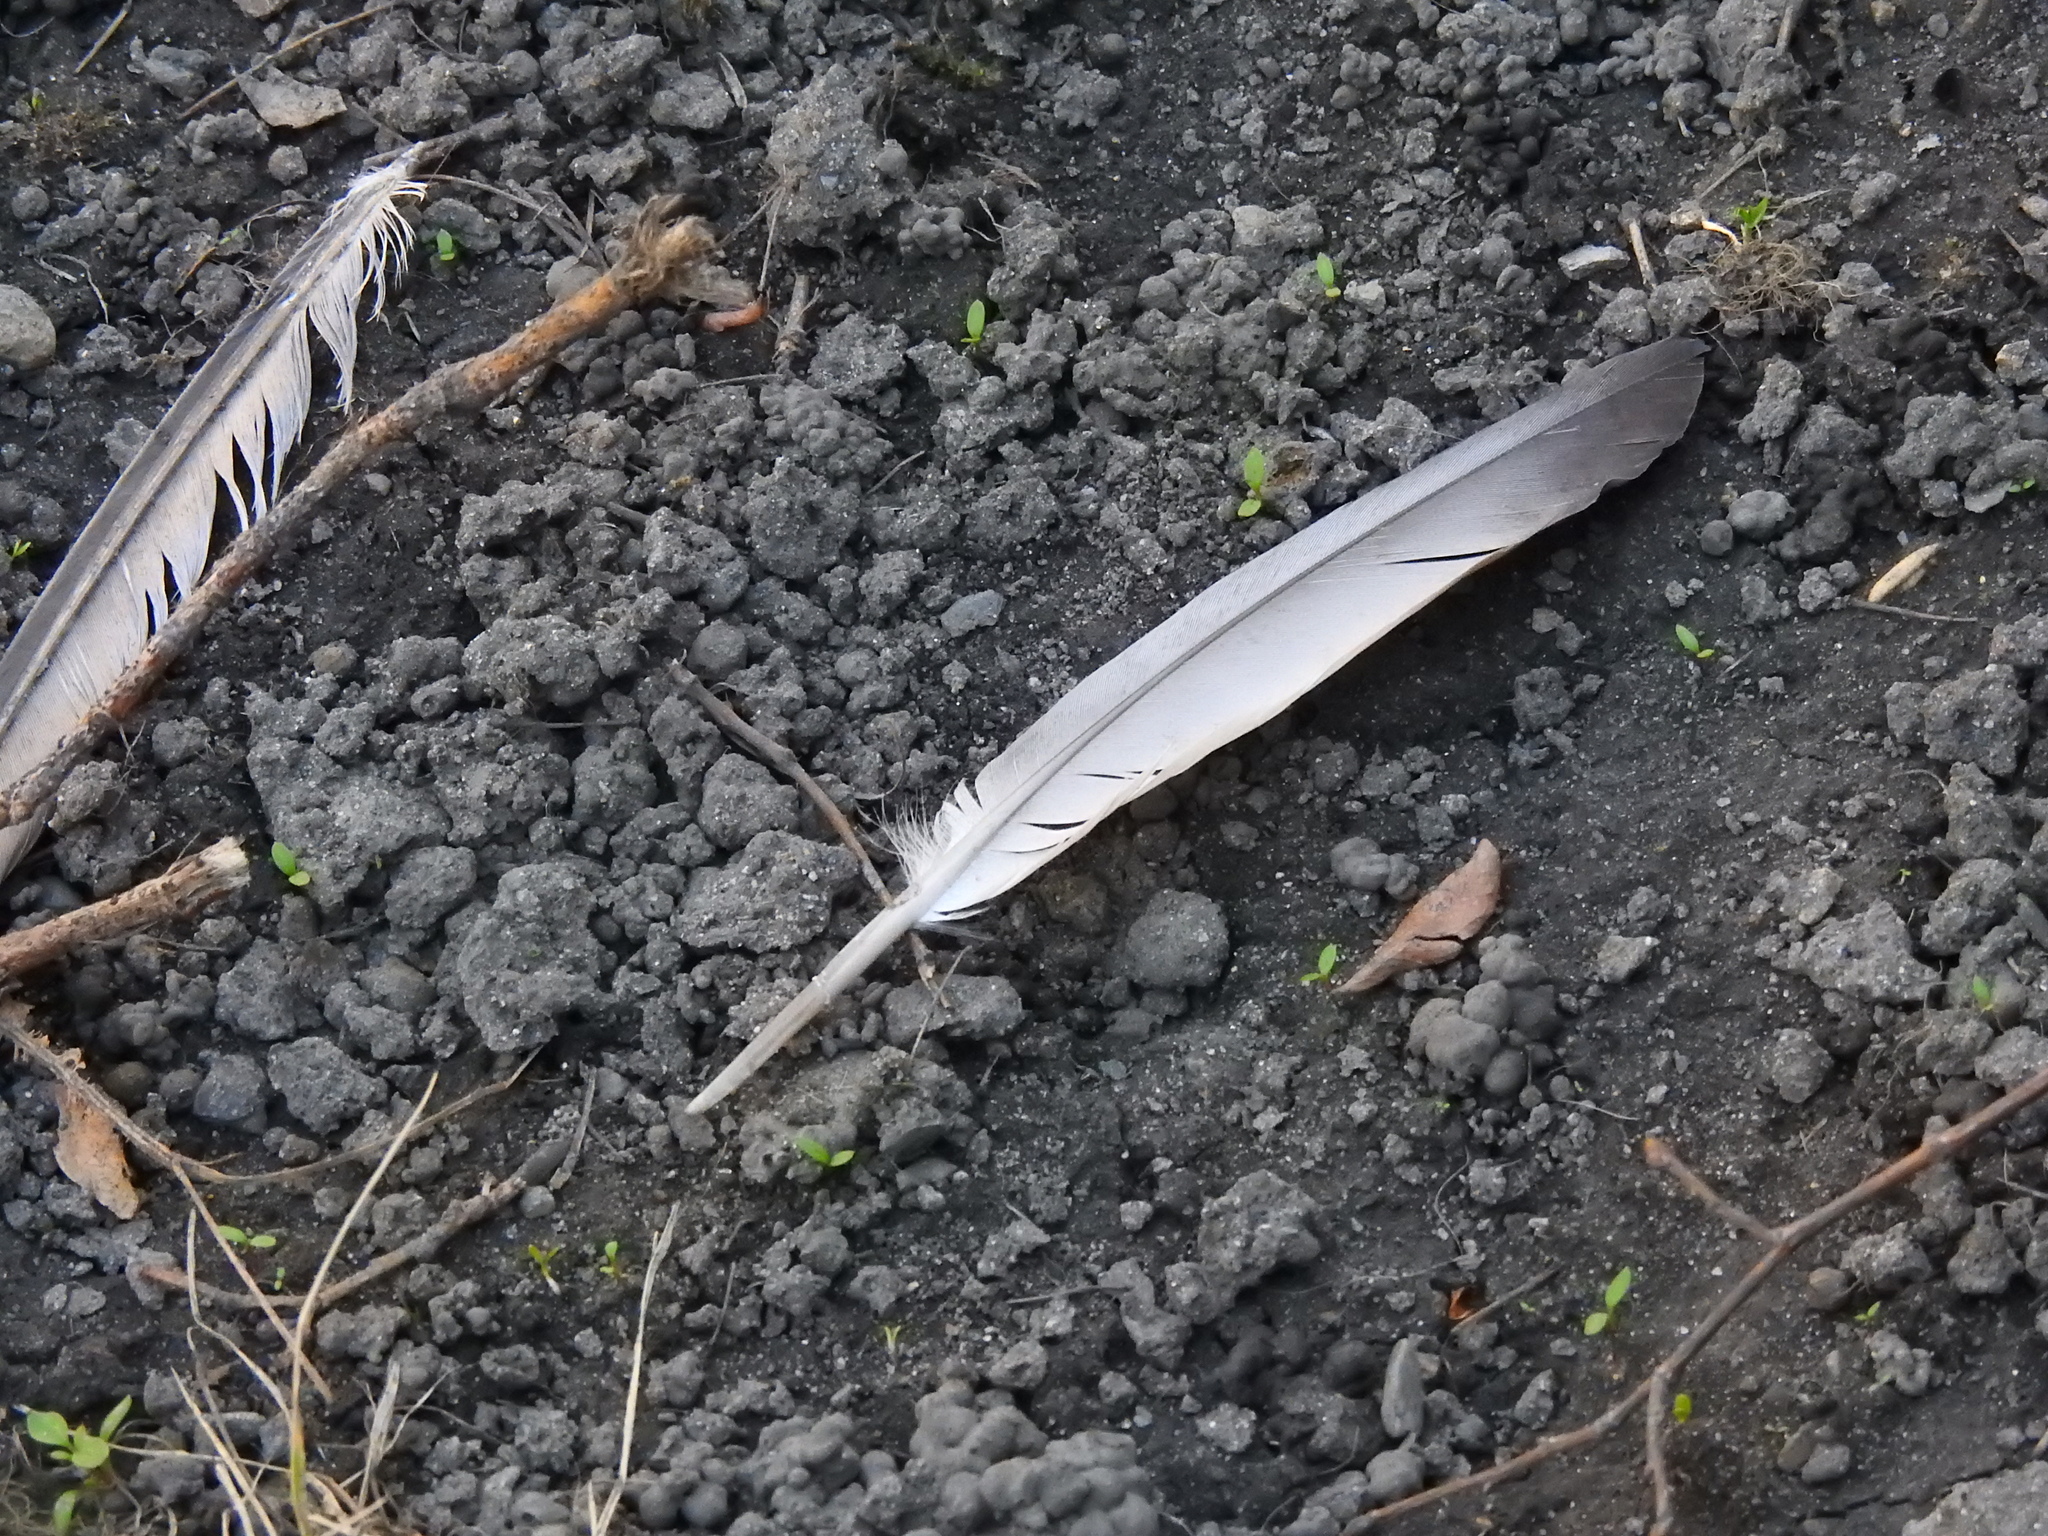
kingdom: Animalia
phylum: Chordata
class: Aves
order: Columbiformes
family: Columbidae
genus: Columba
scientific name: Columba livia
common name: Rock pigeon
